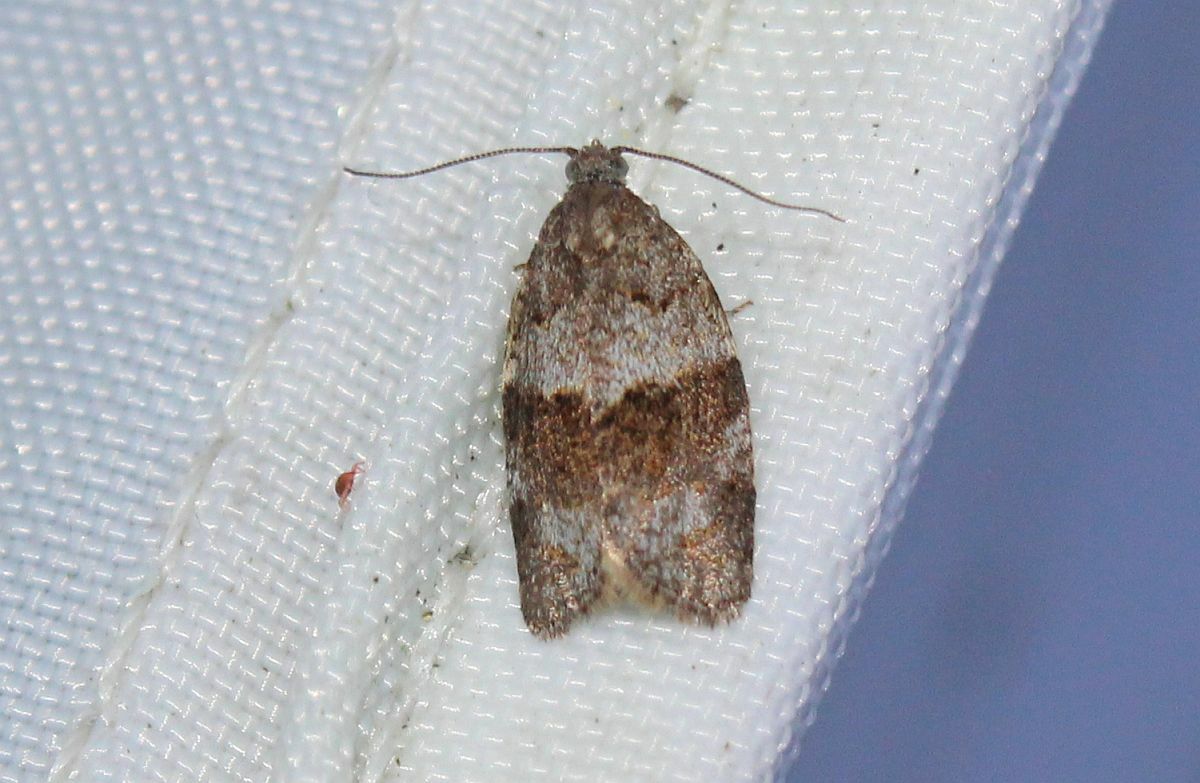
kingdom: Animalia
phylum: Arthropoda
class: Insecta
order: Lepidoptera
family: Tortricidae
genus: Syndemis
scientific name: Syndemis musculana
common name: Dark-barred twist
